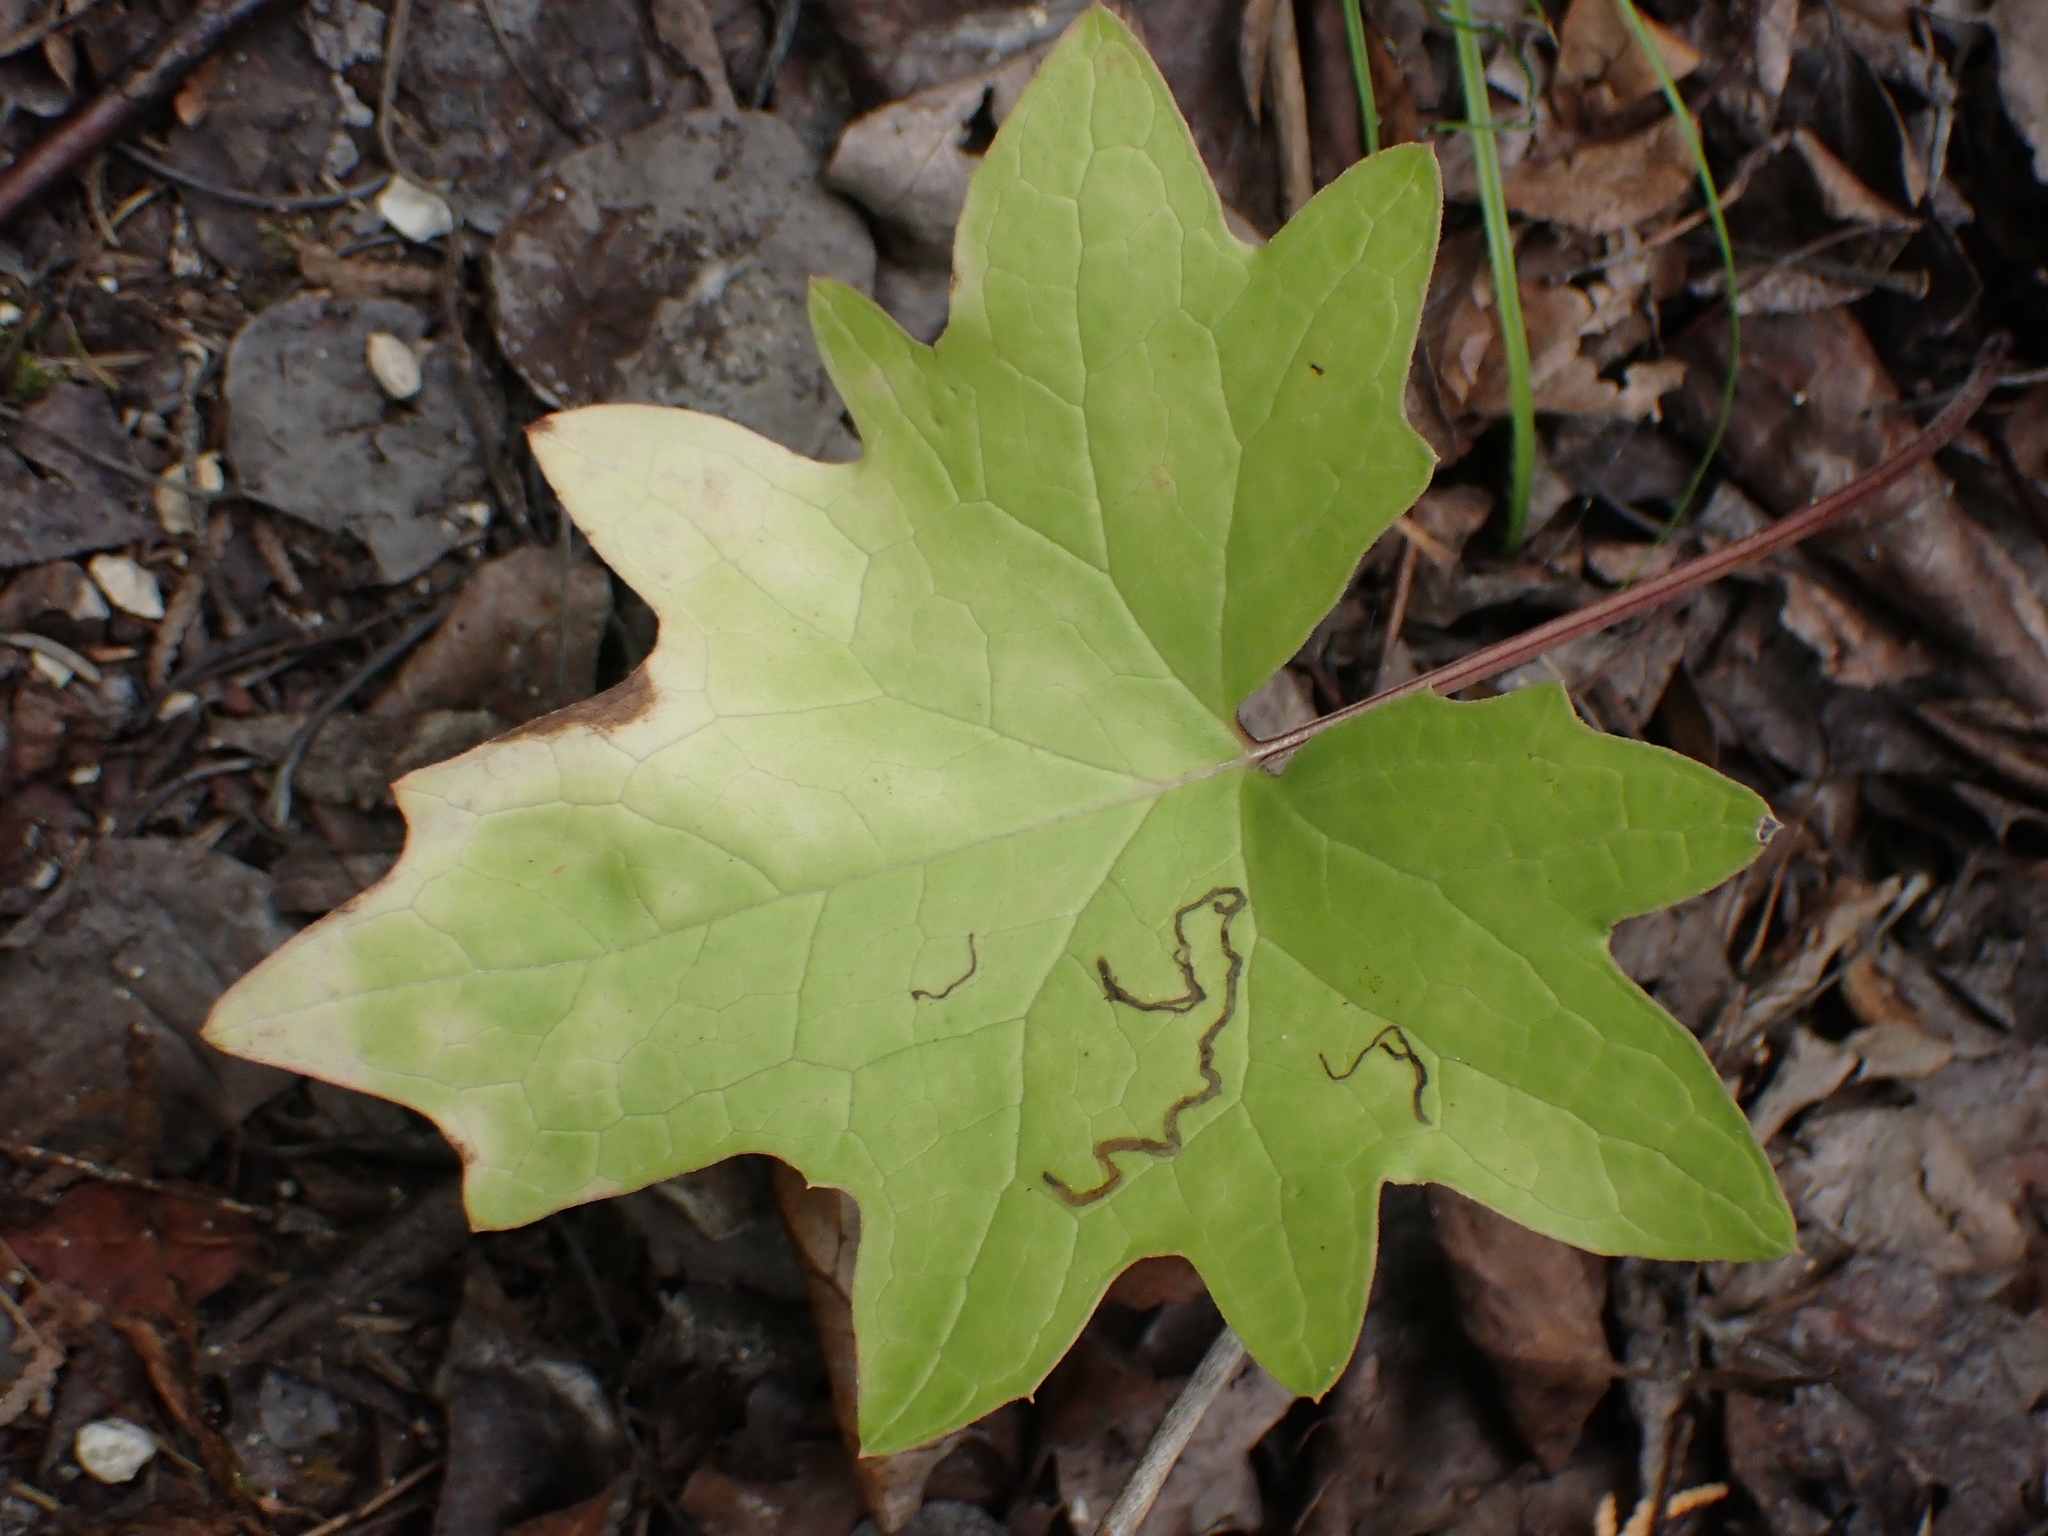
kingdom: Plantae
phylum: Tracheophyta
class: Magnoliopsida
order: Asterales
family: Asteraceae
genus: Petasites
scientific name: Petasites frigidus
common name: Arctic butterbur
